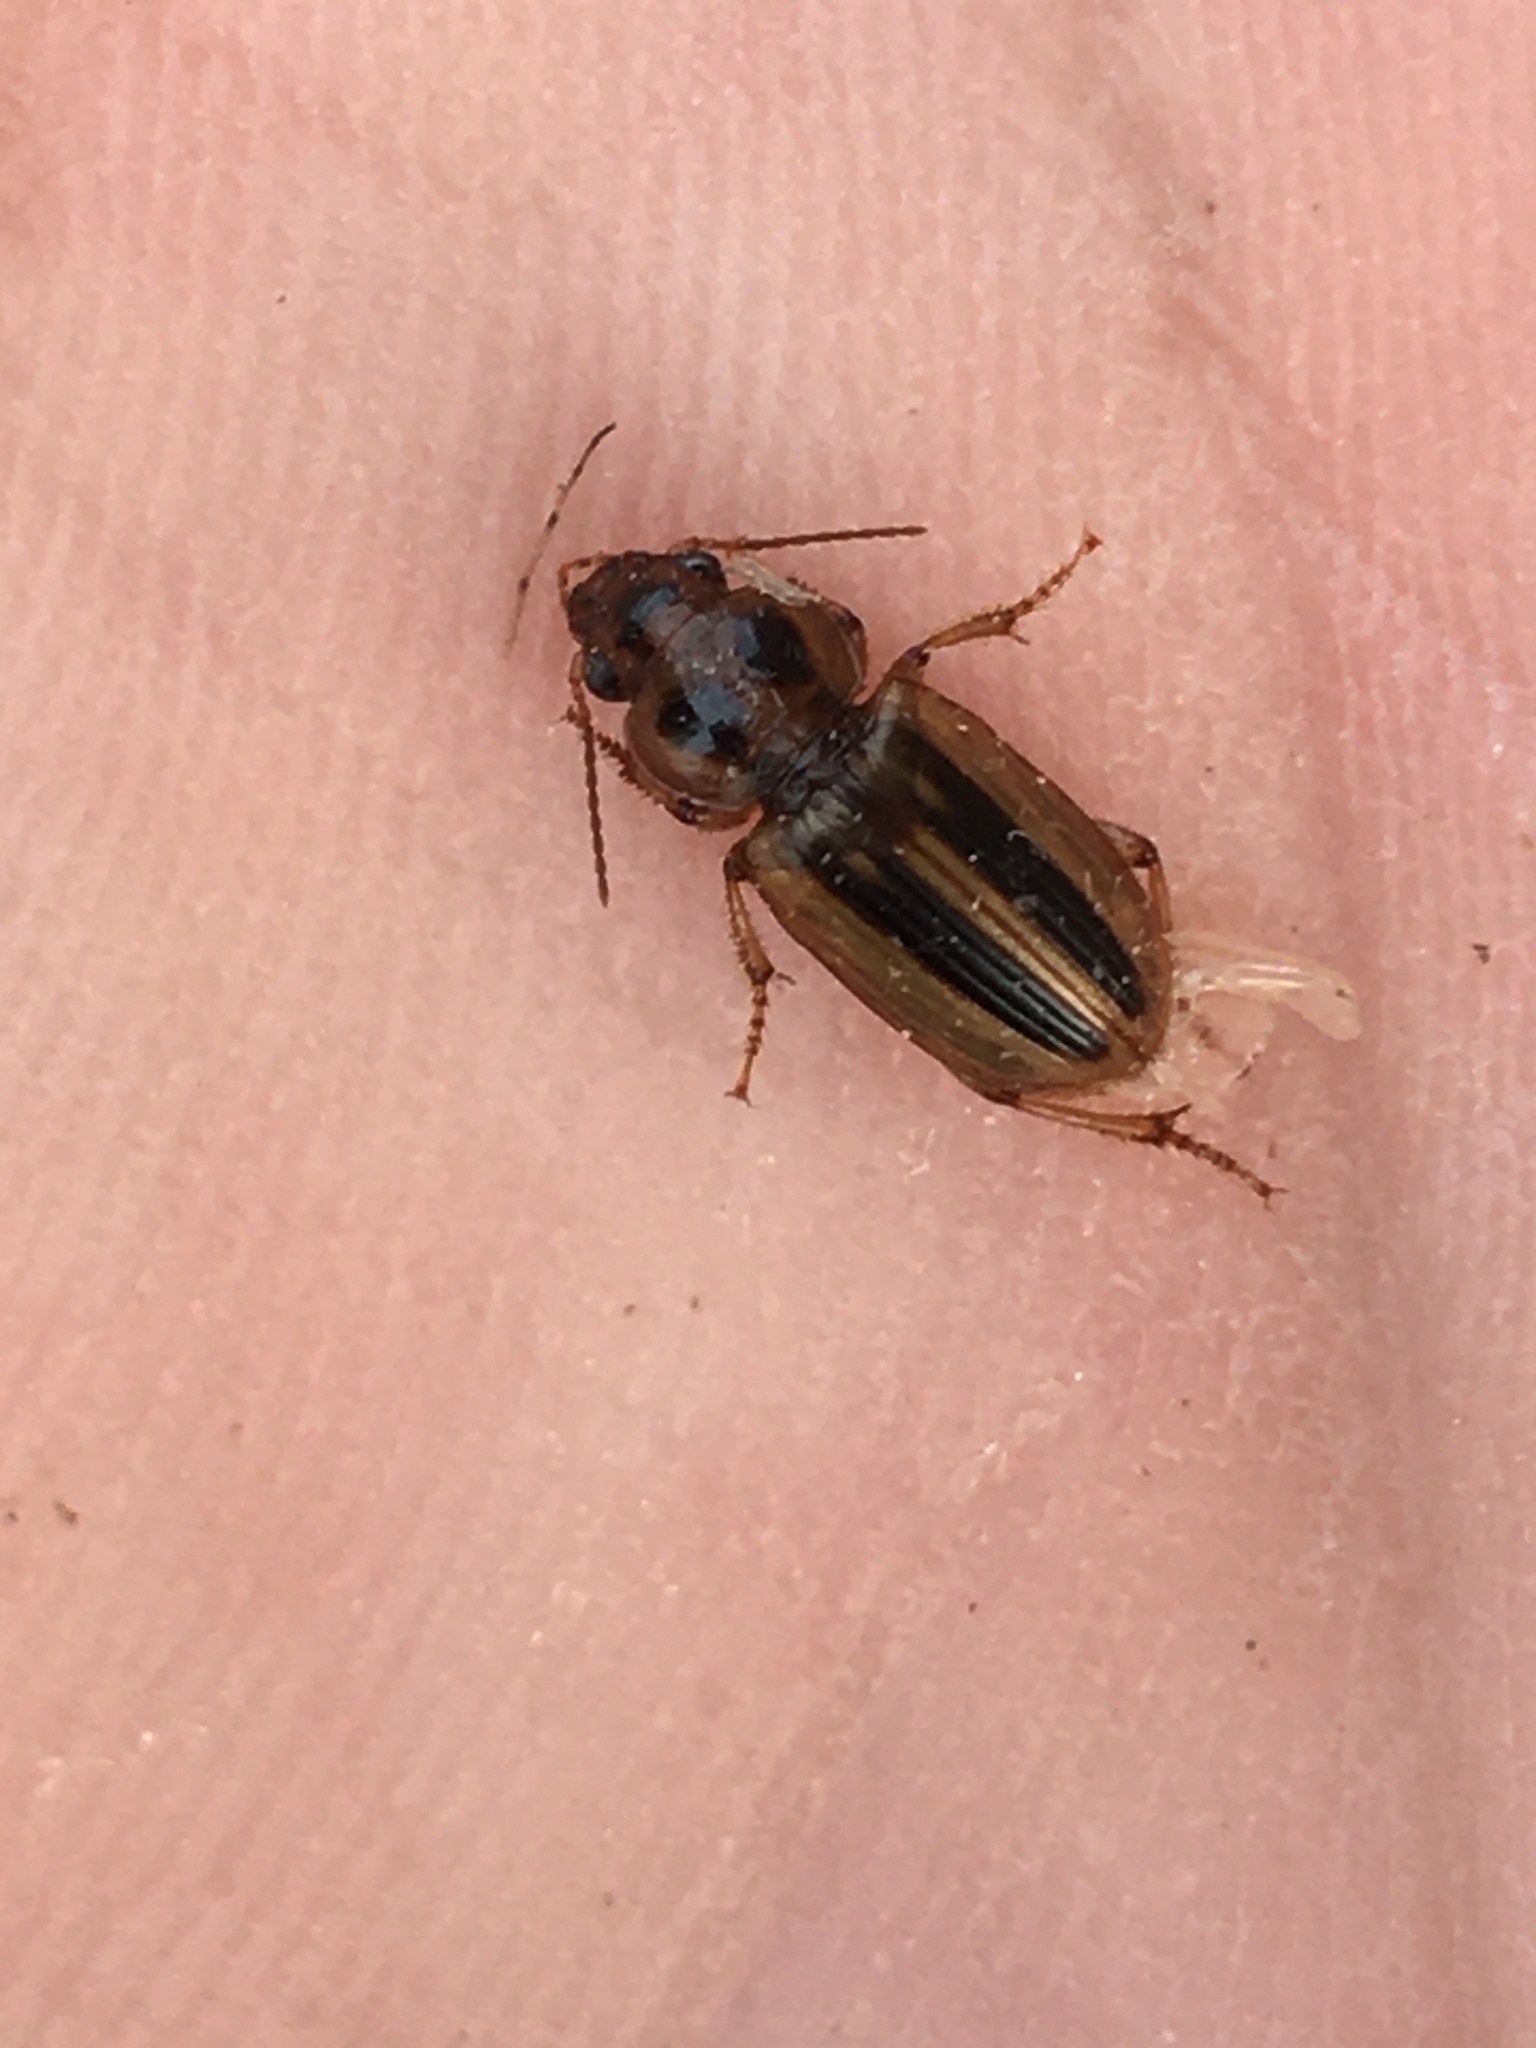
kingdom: Animalia
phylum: Arthropoda
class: Insecta
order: Coleoptera
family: Carabidae
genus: Stenolophus
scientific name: Stenolophus lineola
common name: Lined stenolophus
